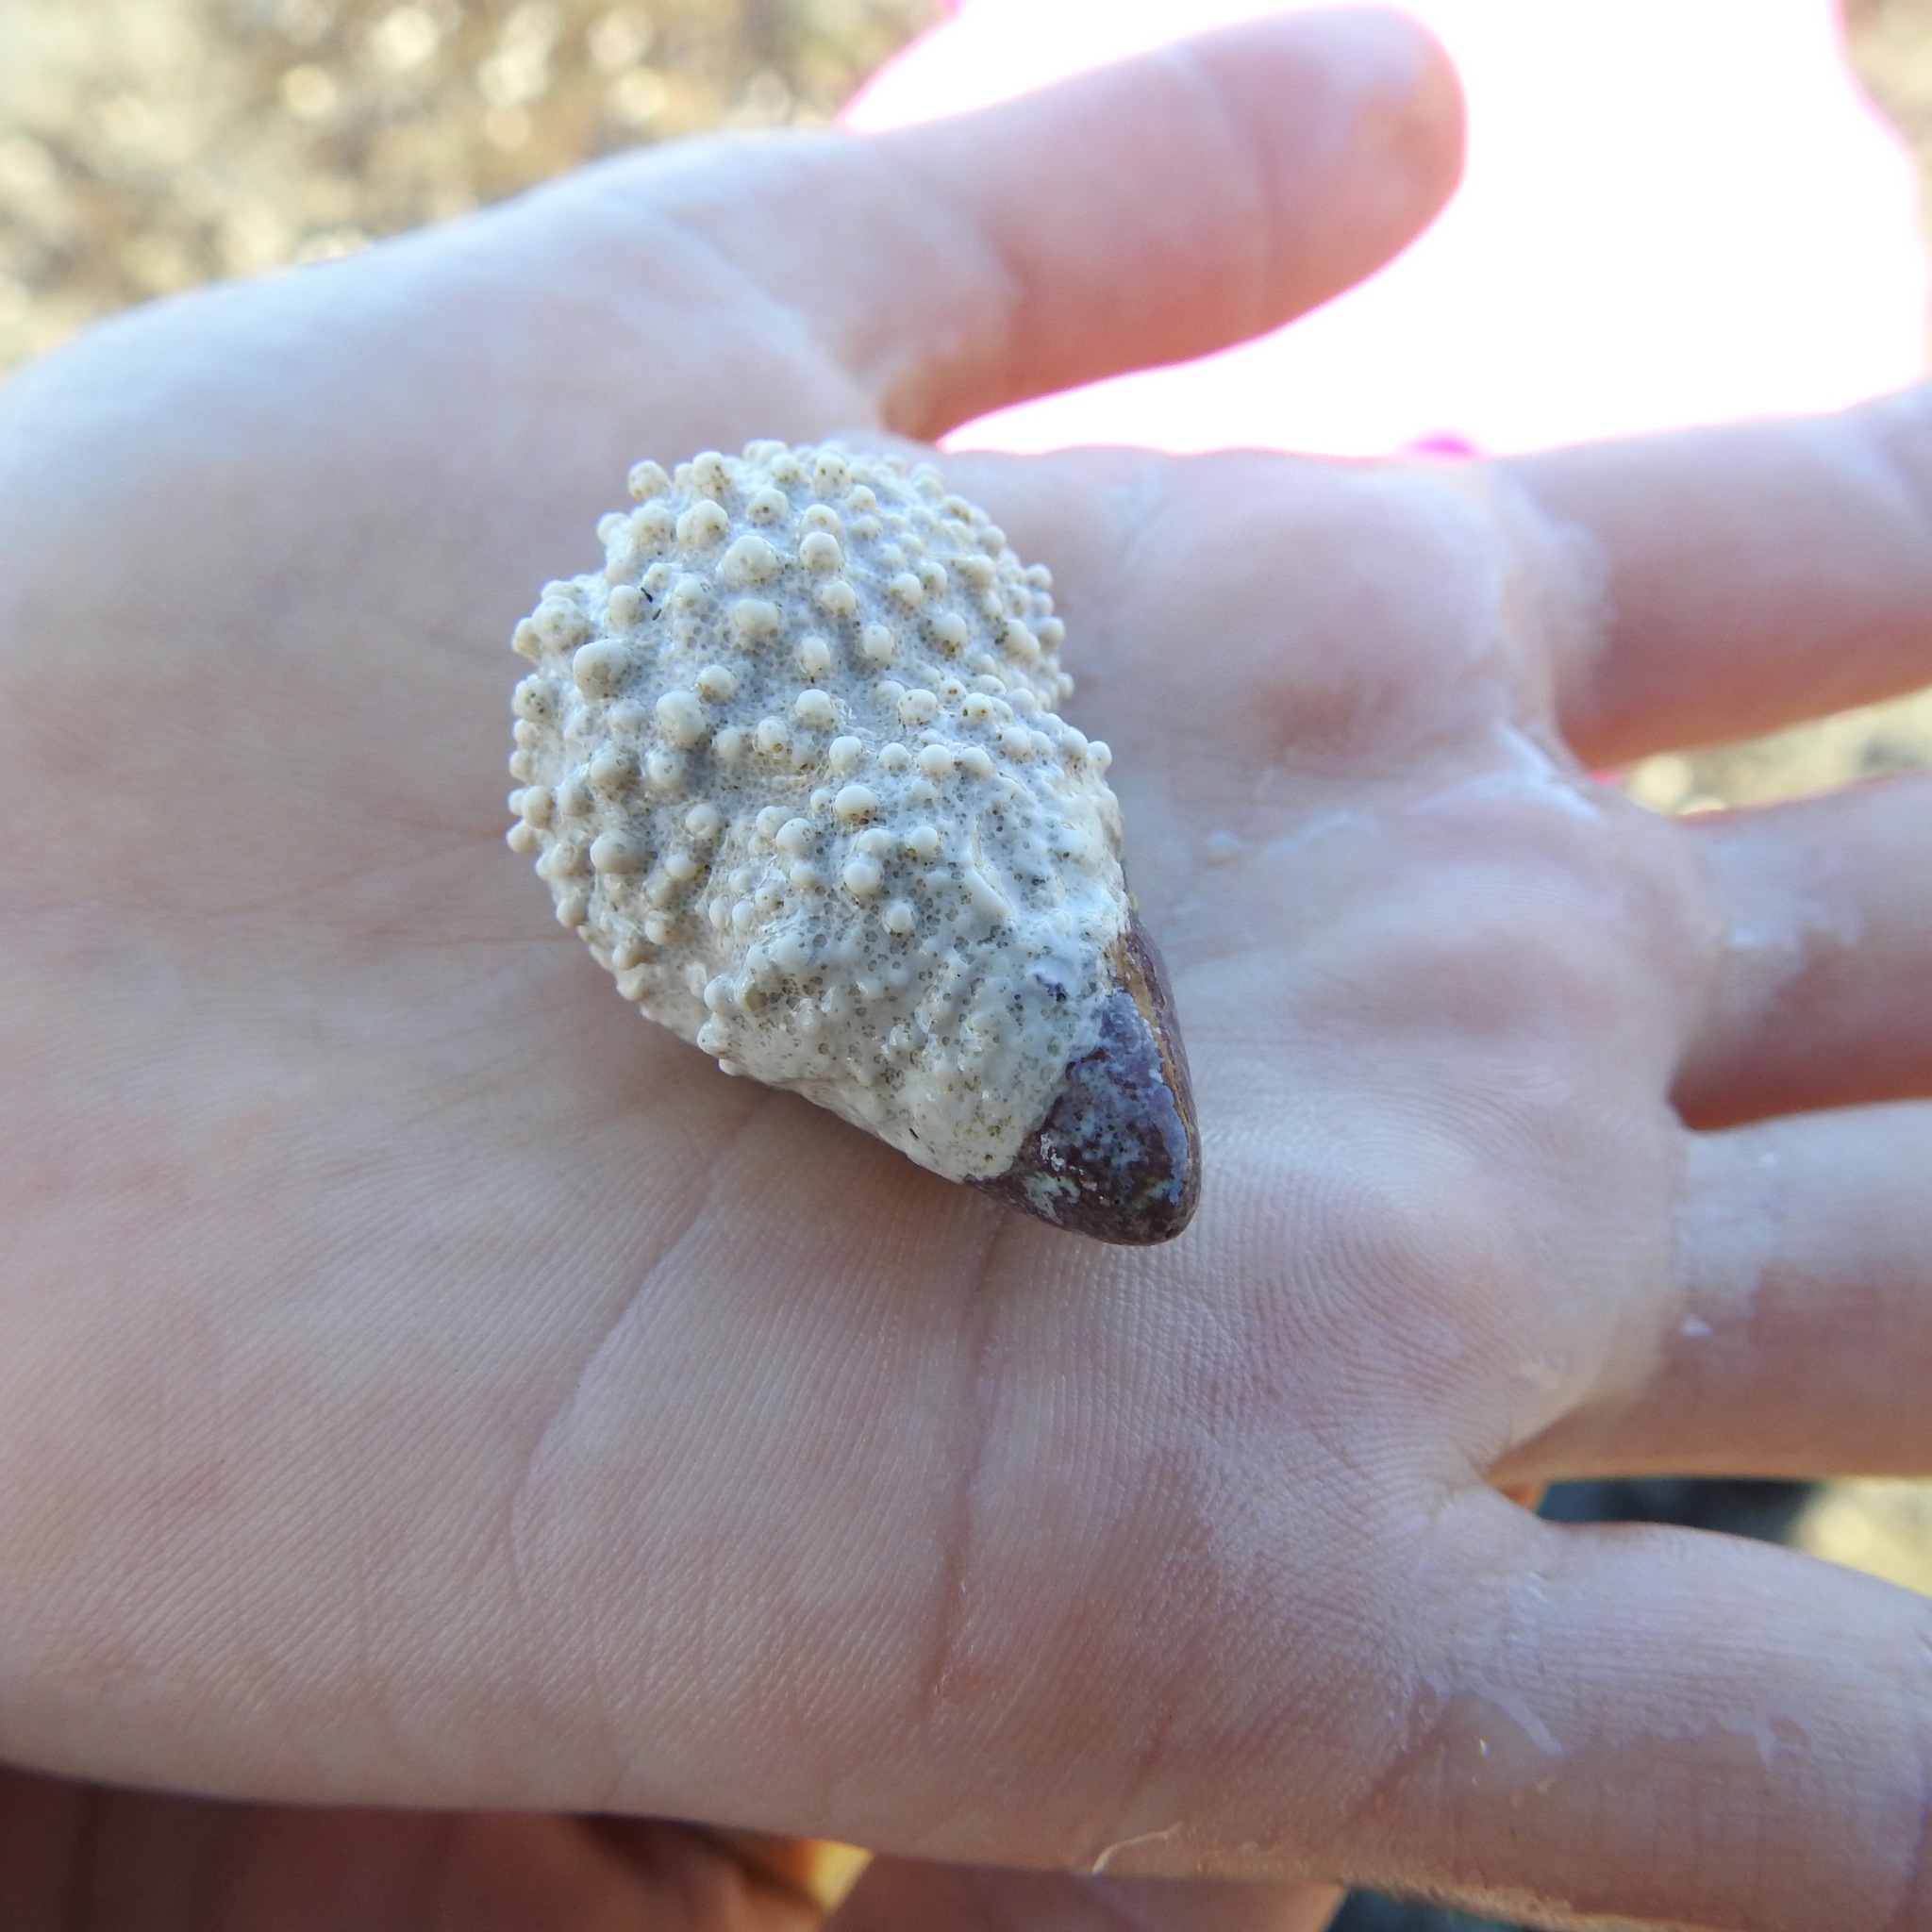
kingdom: Animalia
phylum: Mollusca
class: Gastropoda
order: Neogastropoda
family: Tudiclidae
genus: Lirabuccinum
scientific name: Lirabuccinum dirum
